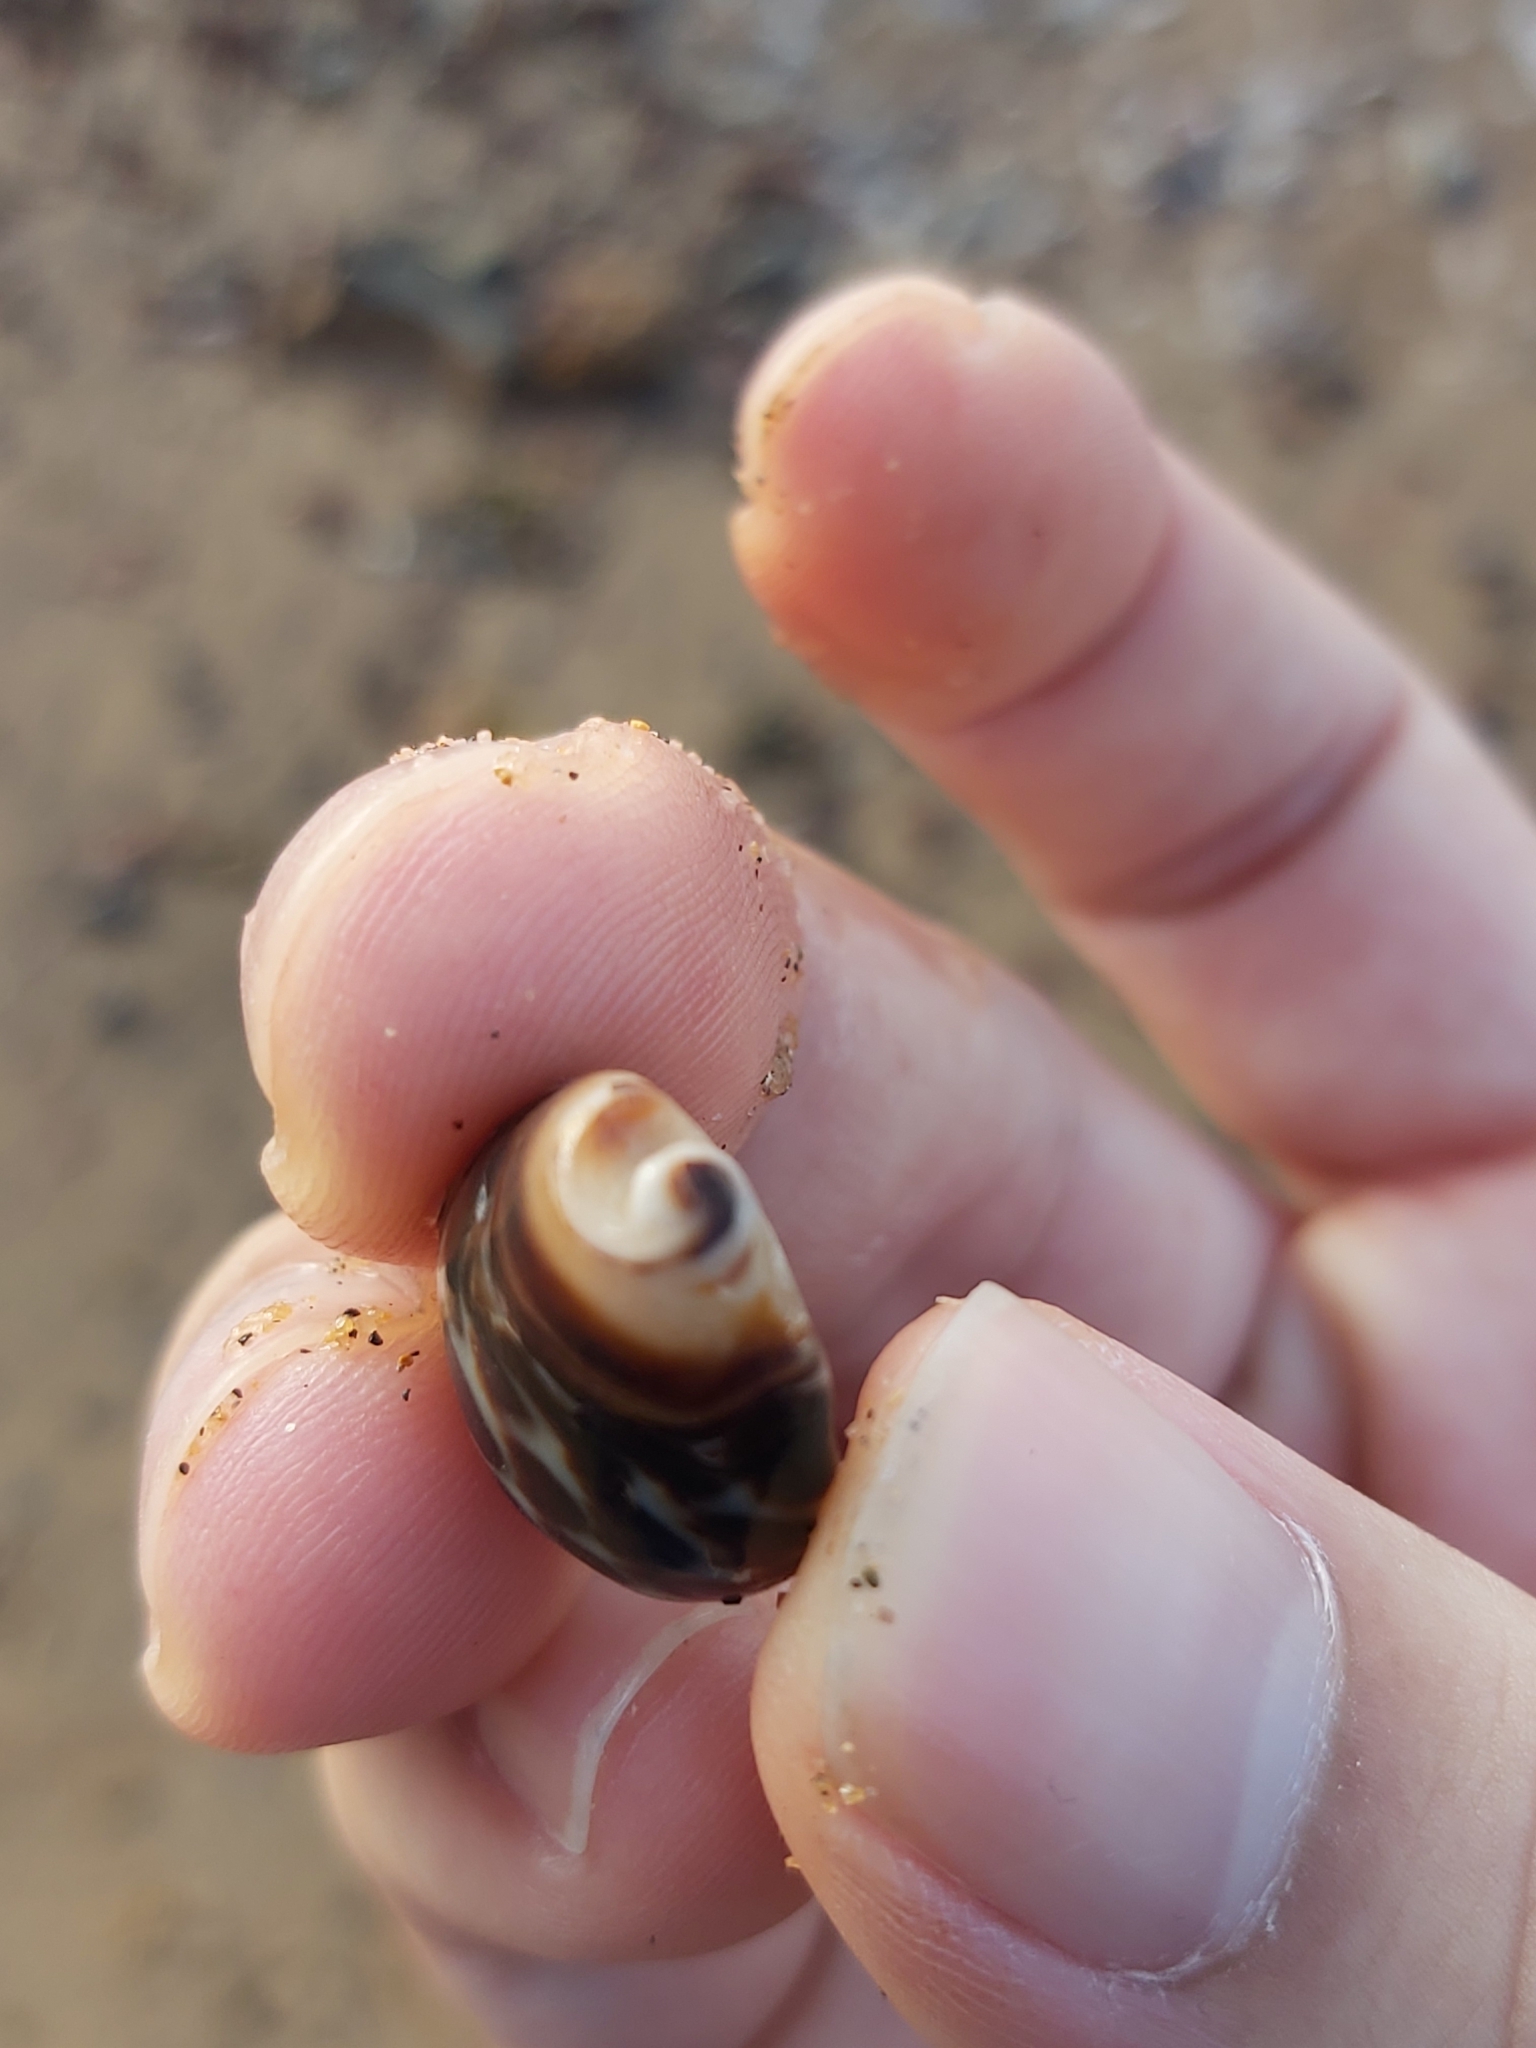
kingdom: Animalia
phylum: Mollusca
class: Gastropoda
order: Neogastropoda
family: Muricidae
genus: Tenguella
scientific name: Tenguella marginalba
